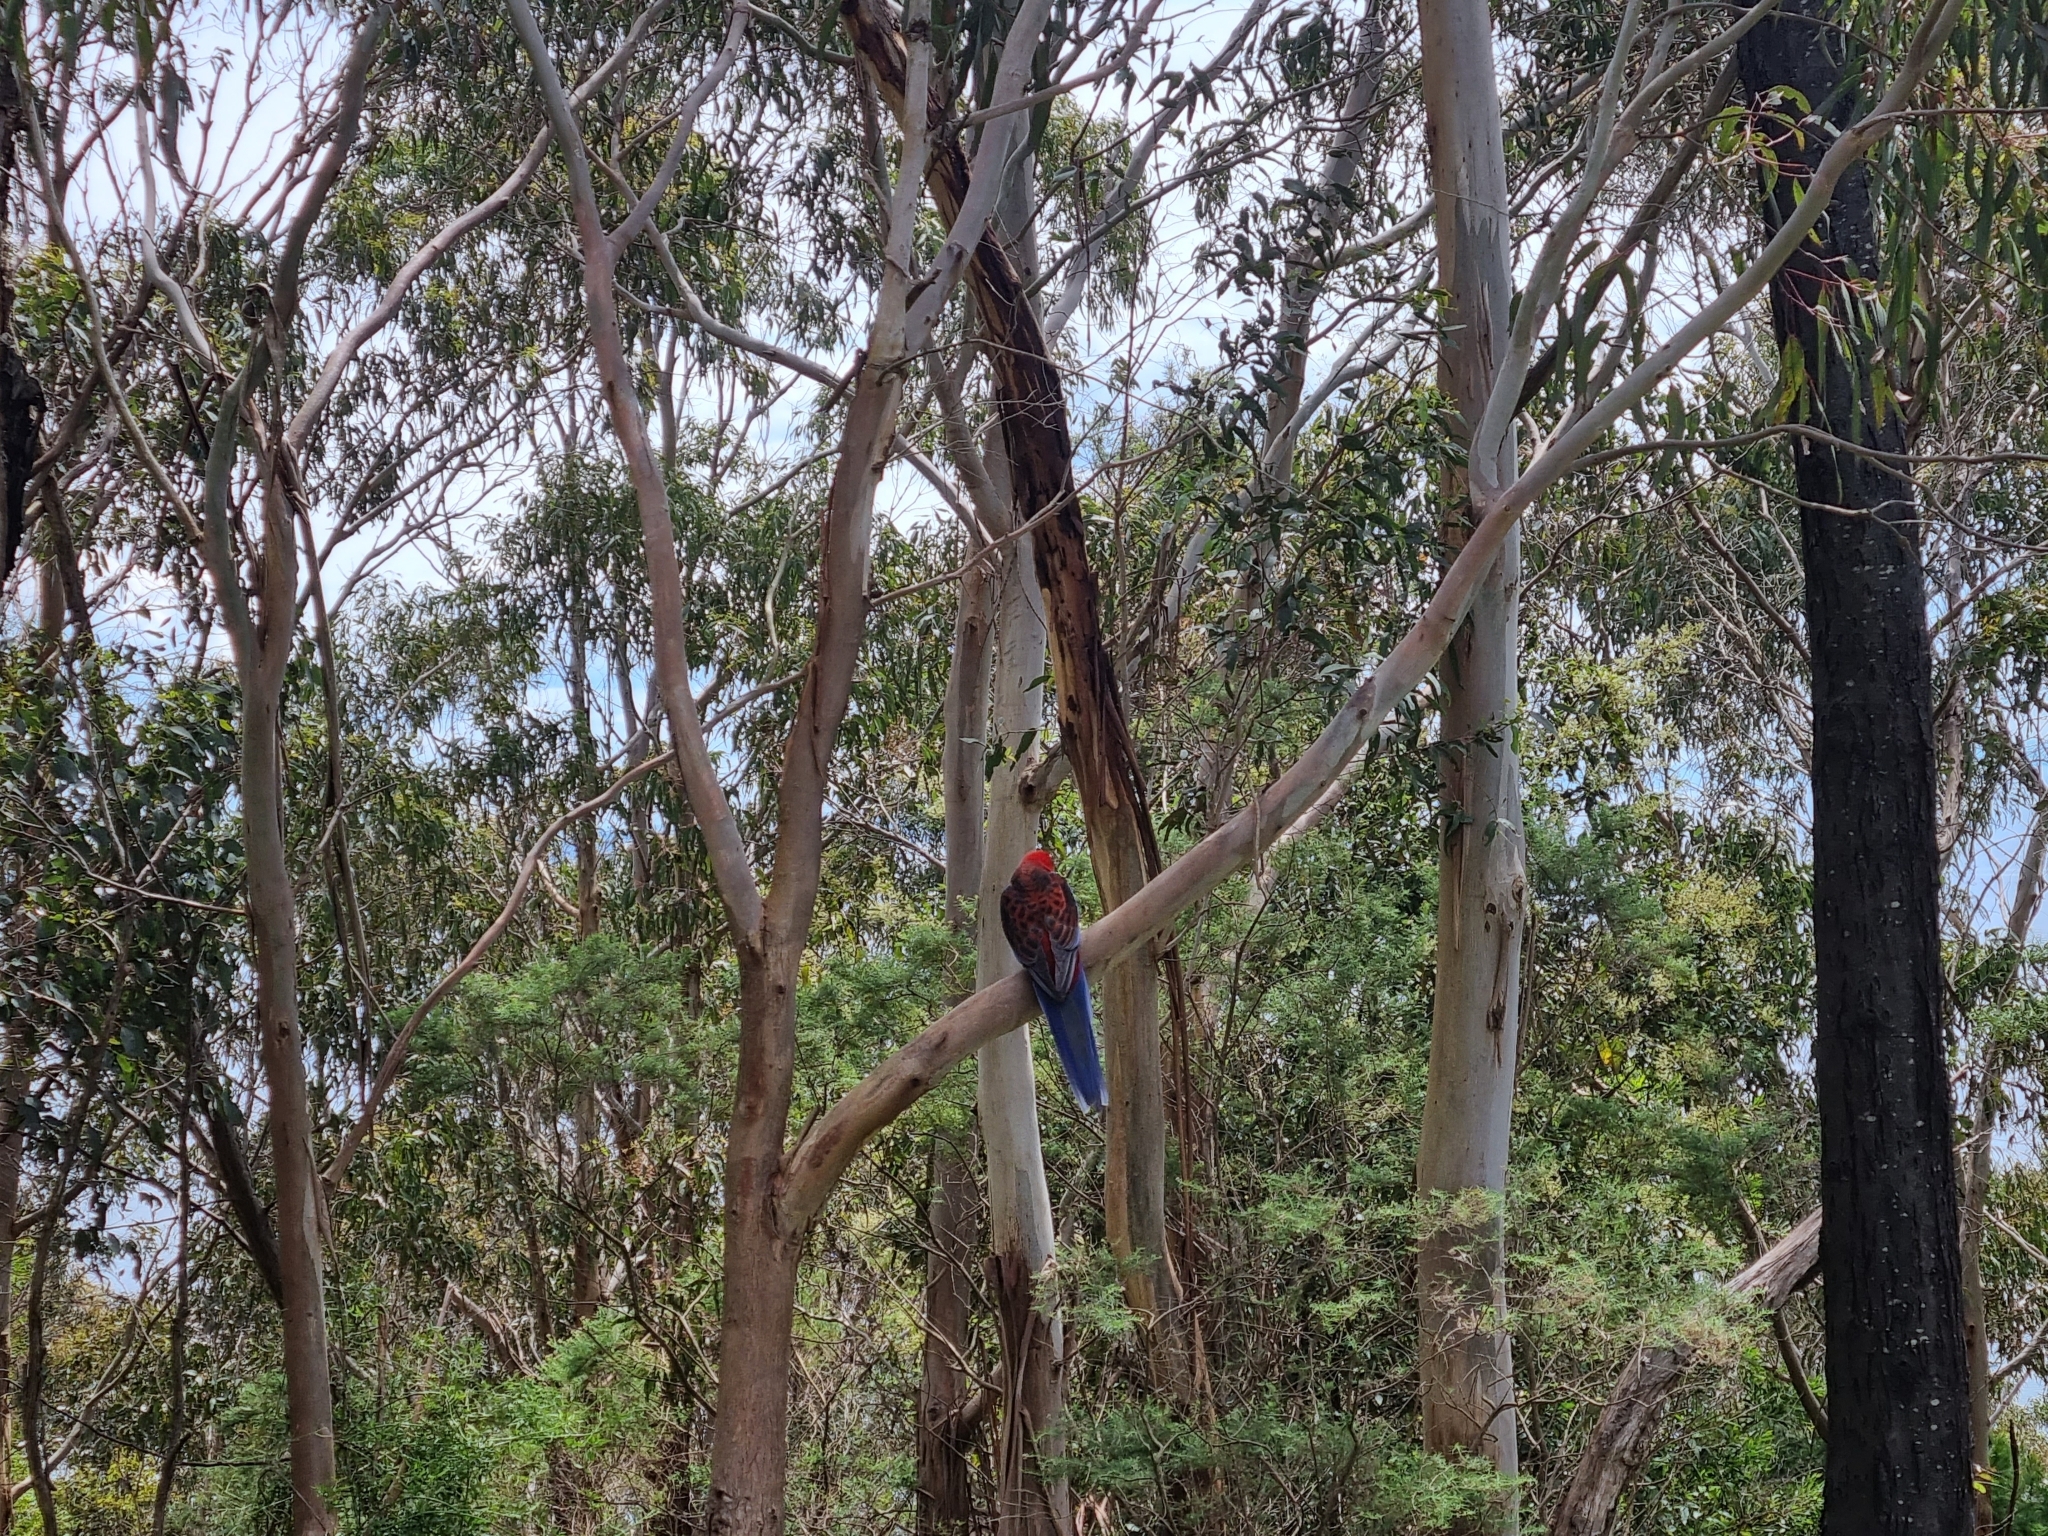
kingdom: Animalia
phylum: Chordata
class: Aves
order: Psittaciformes
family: Psittacidae
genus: Platycercus
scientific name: Platycercus elegans
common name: Crimson rosella
